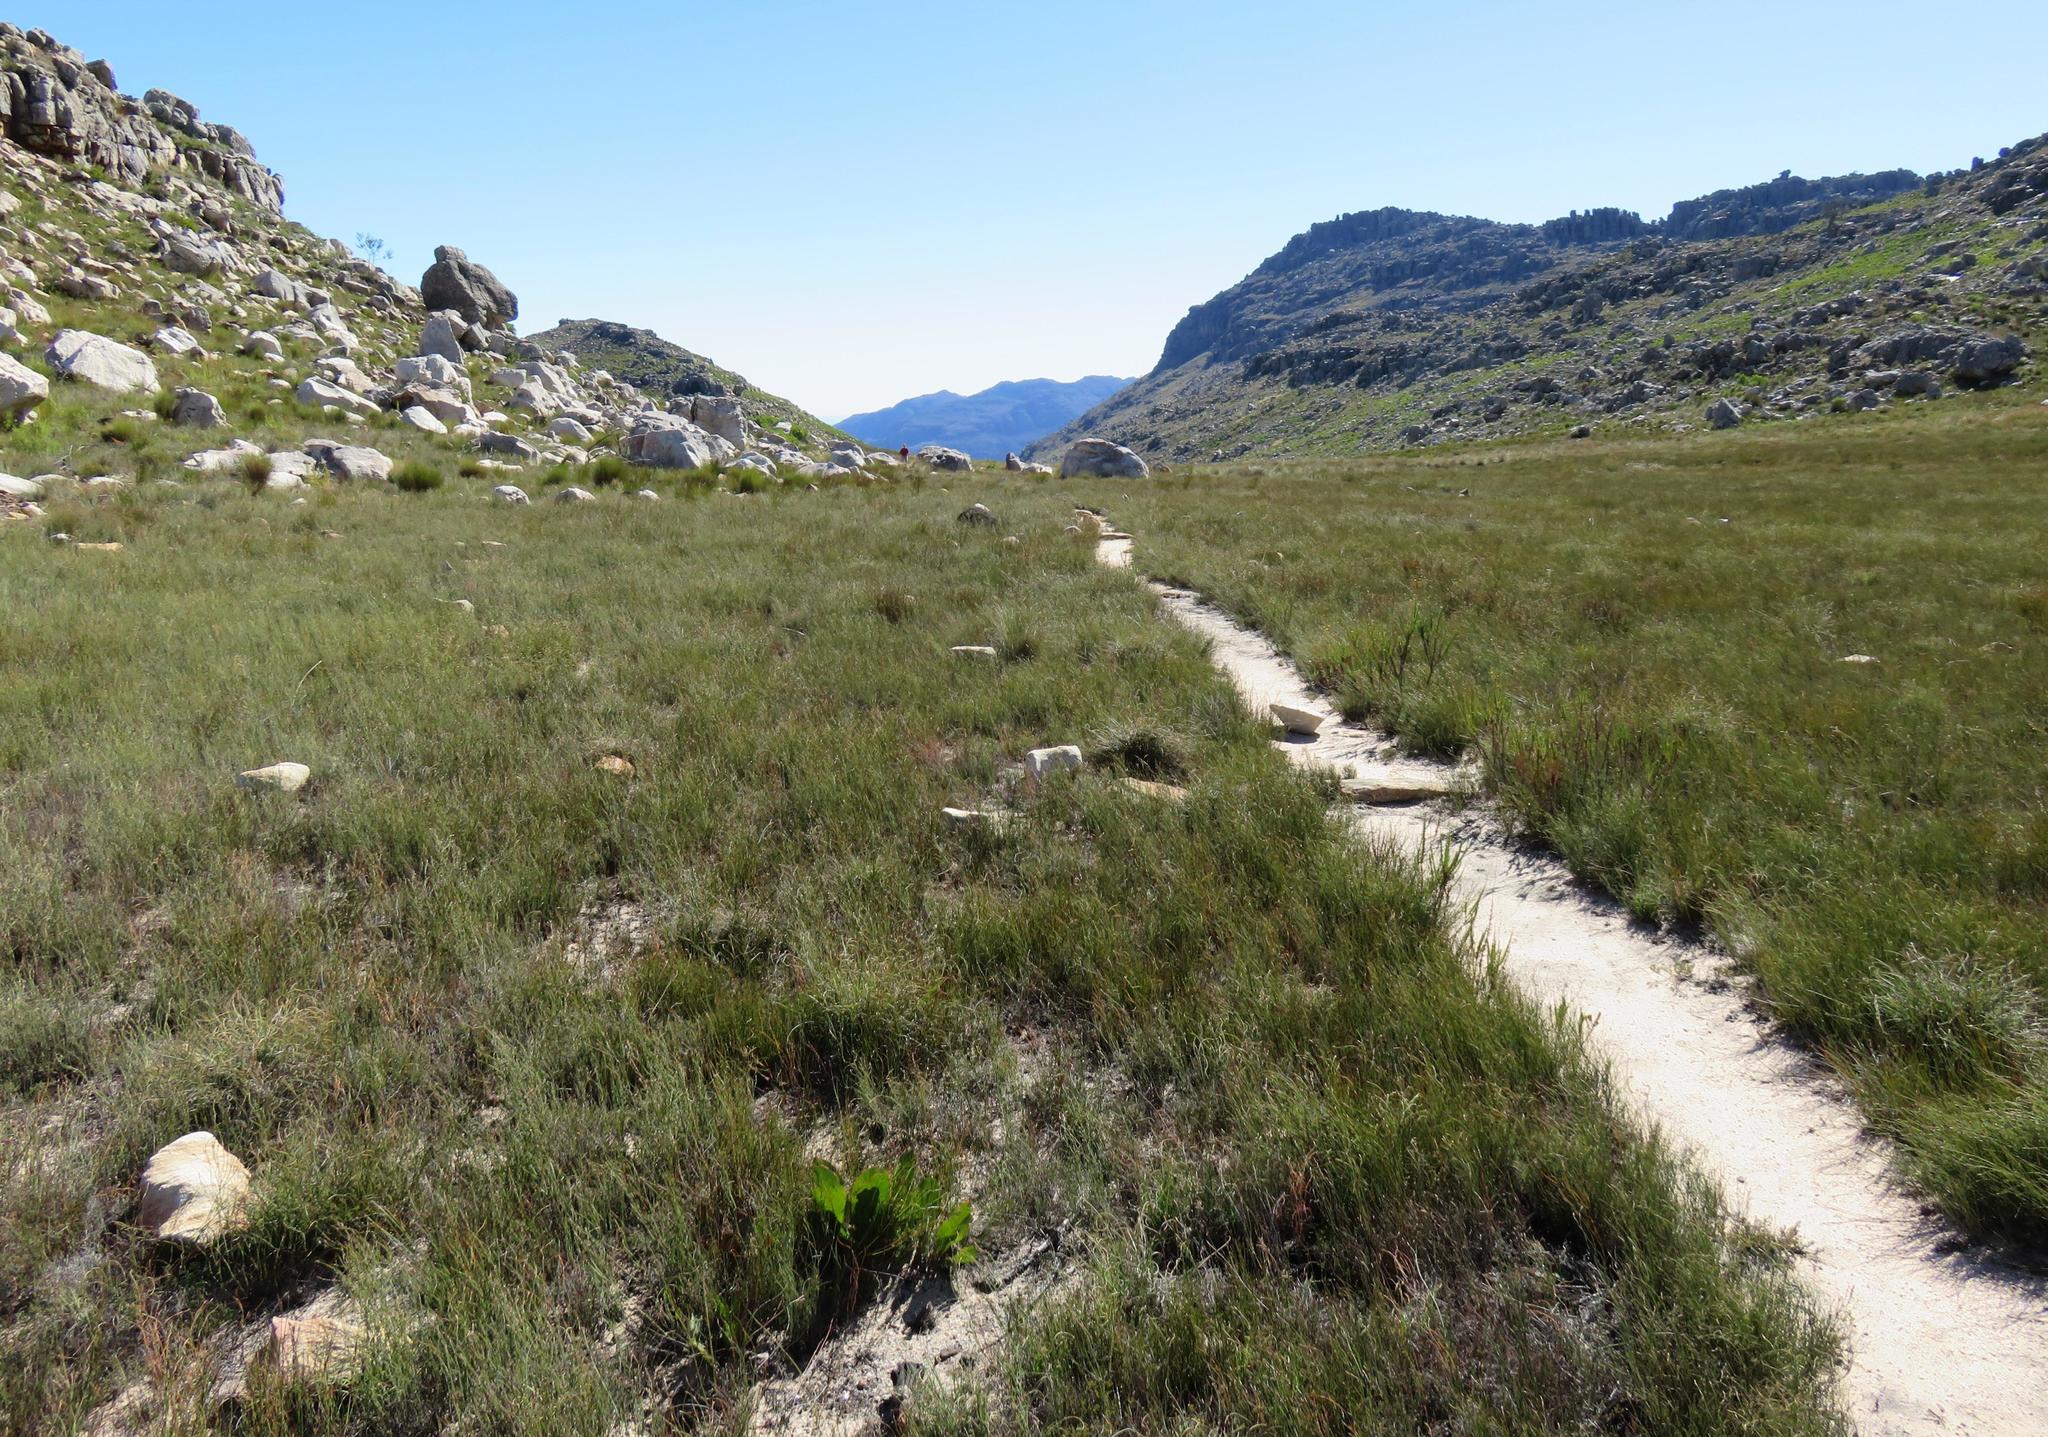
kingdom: Plantae
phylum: Tracheophyta
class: Magnoliopsida
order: Proteales
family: Proteaceae
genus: Protea
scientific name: Protea scolopendriifolia
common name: Harts-tongue-fern sugarbush
